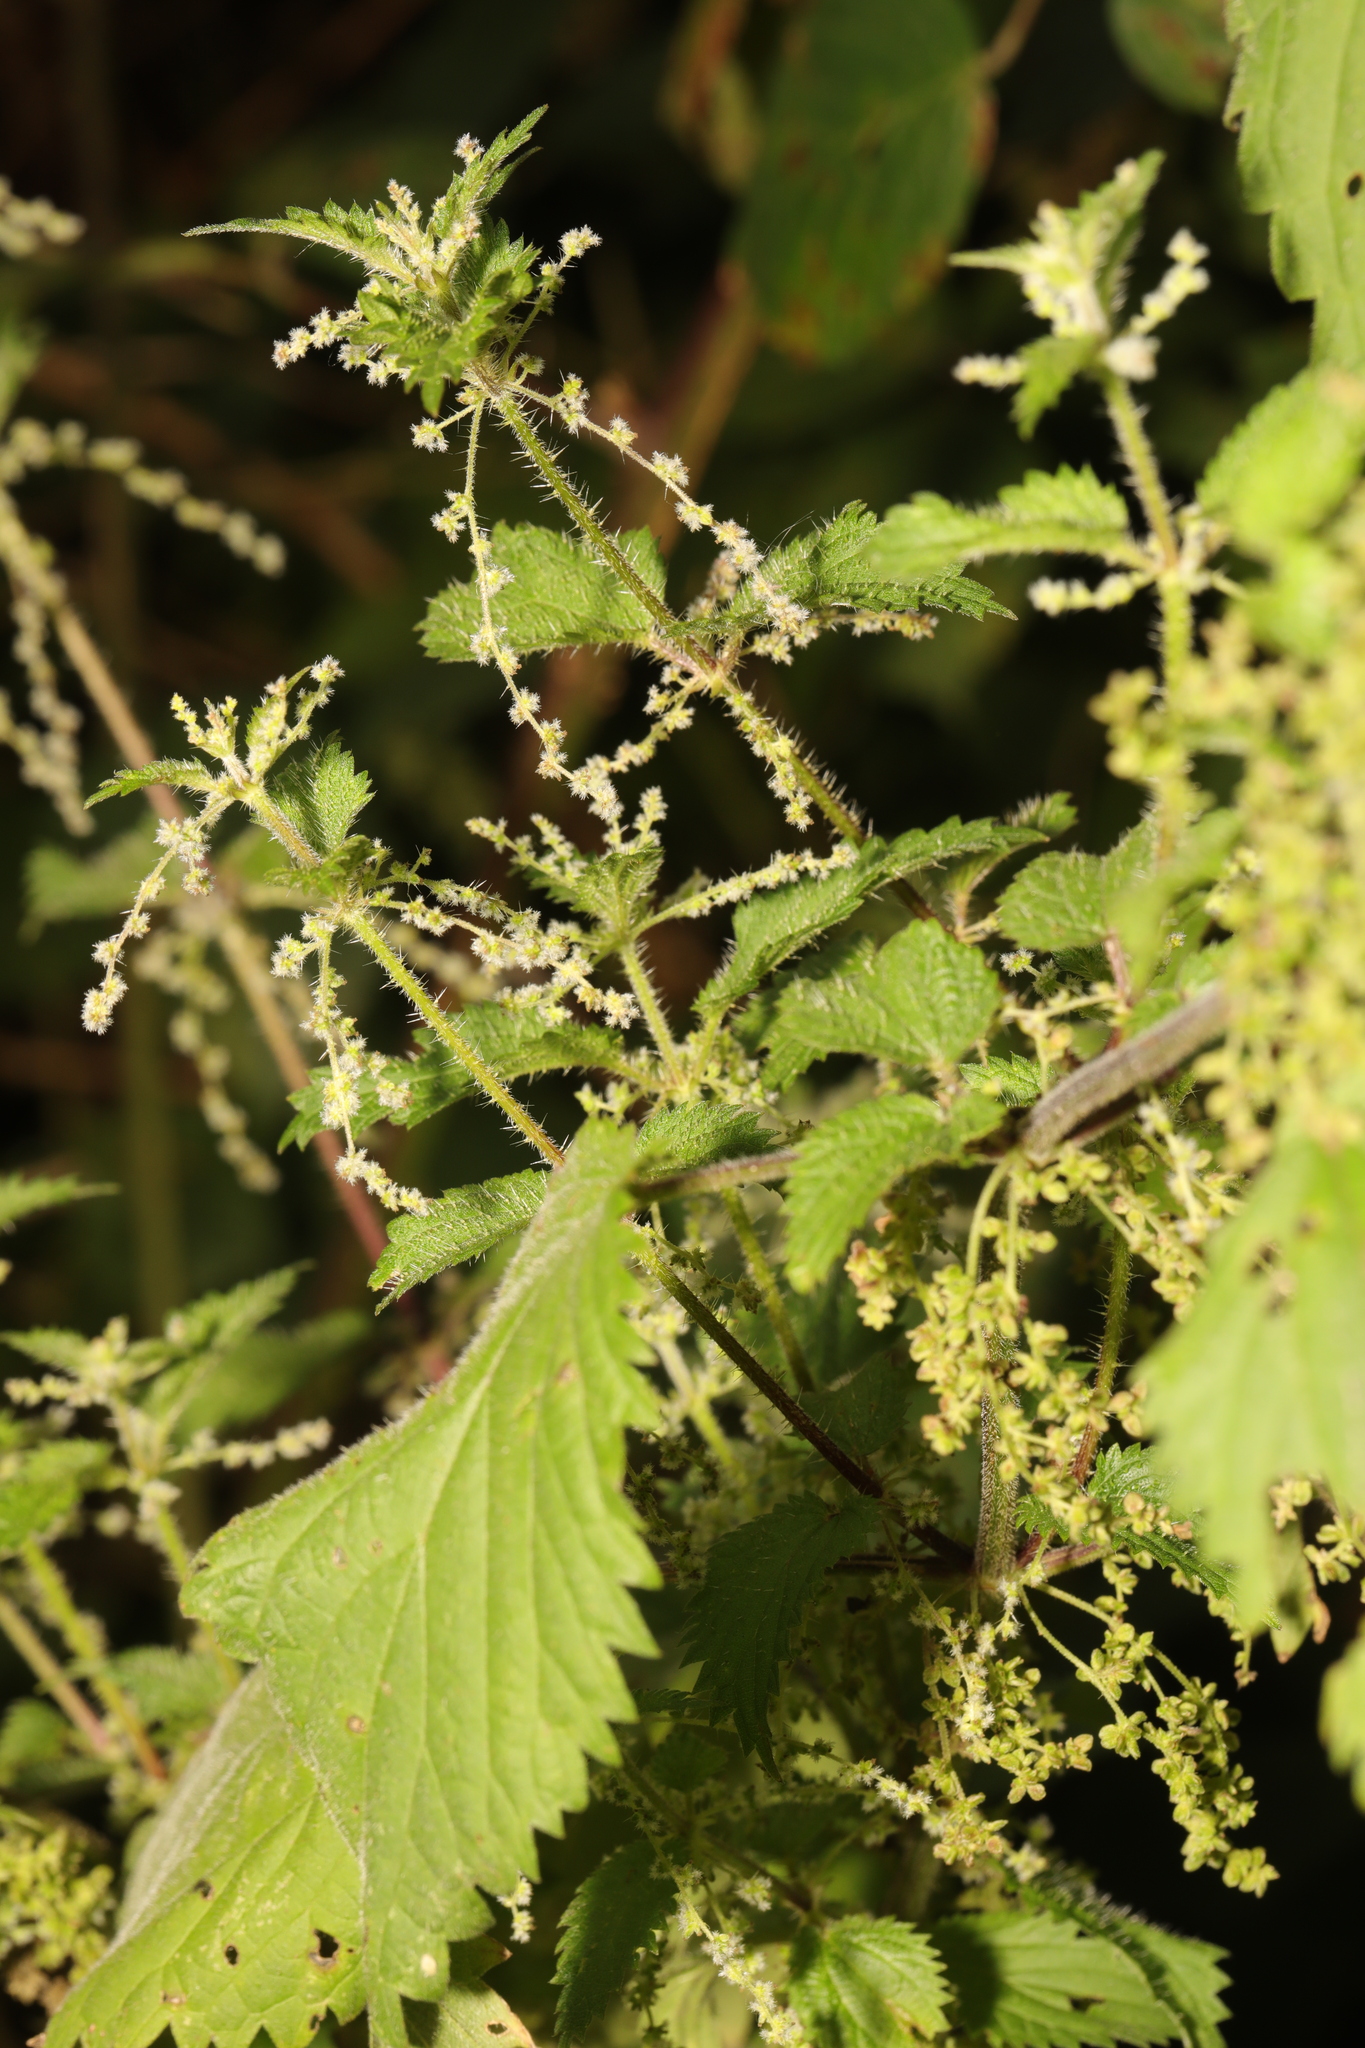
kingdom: Plantae
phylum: Tracheophyta
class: Magnoliopsida
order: Rosales
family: Urticaceae
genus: Urtica
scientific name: Urtica dioica
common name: Common nettle
